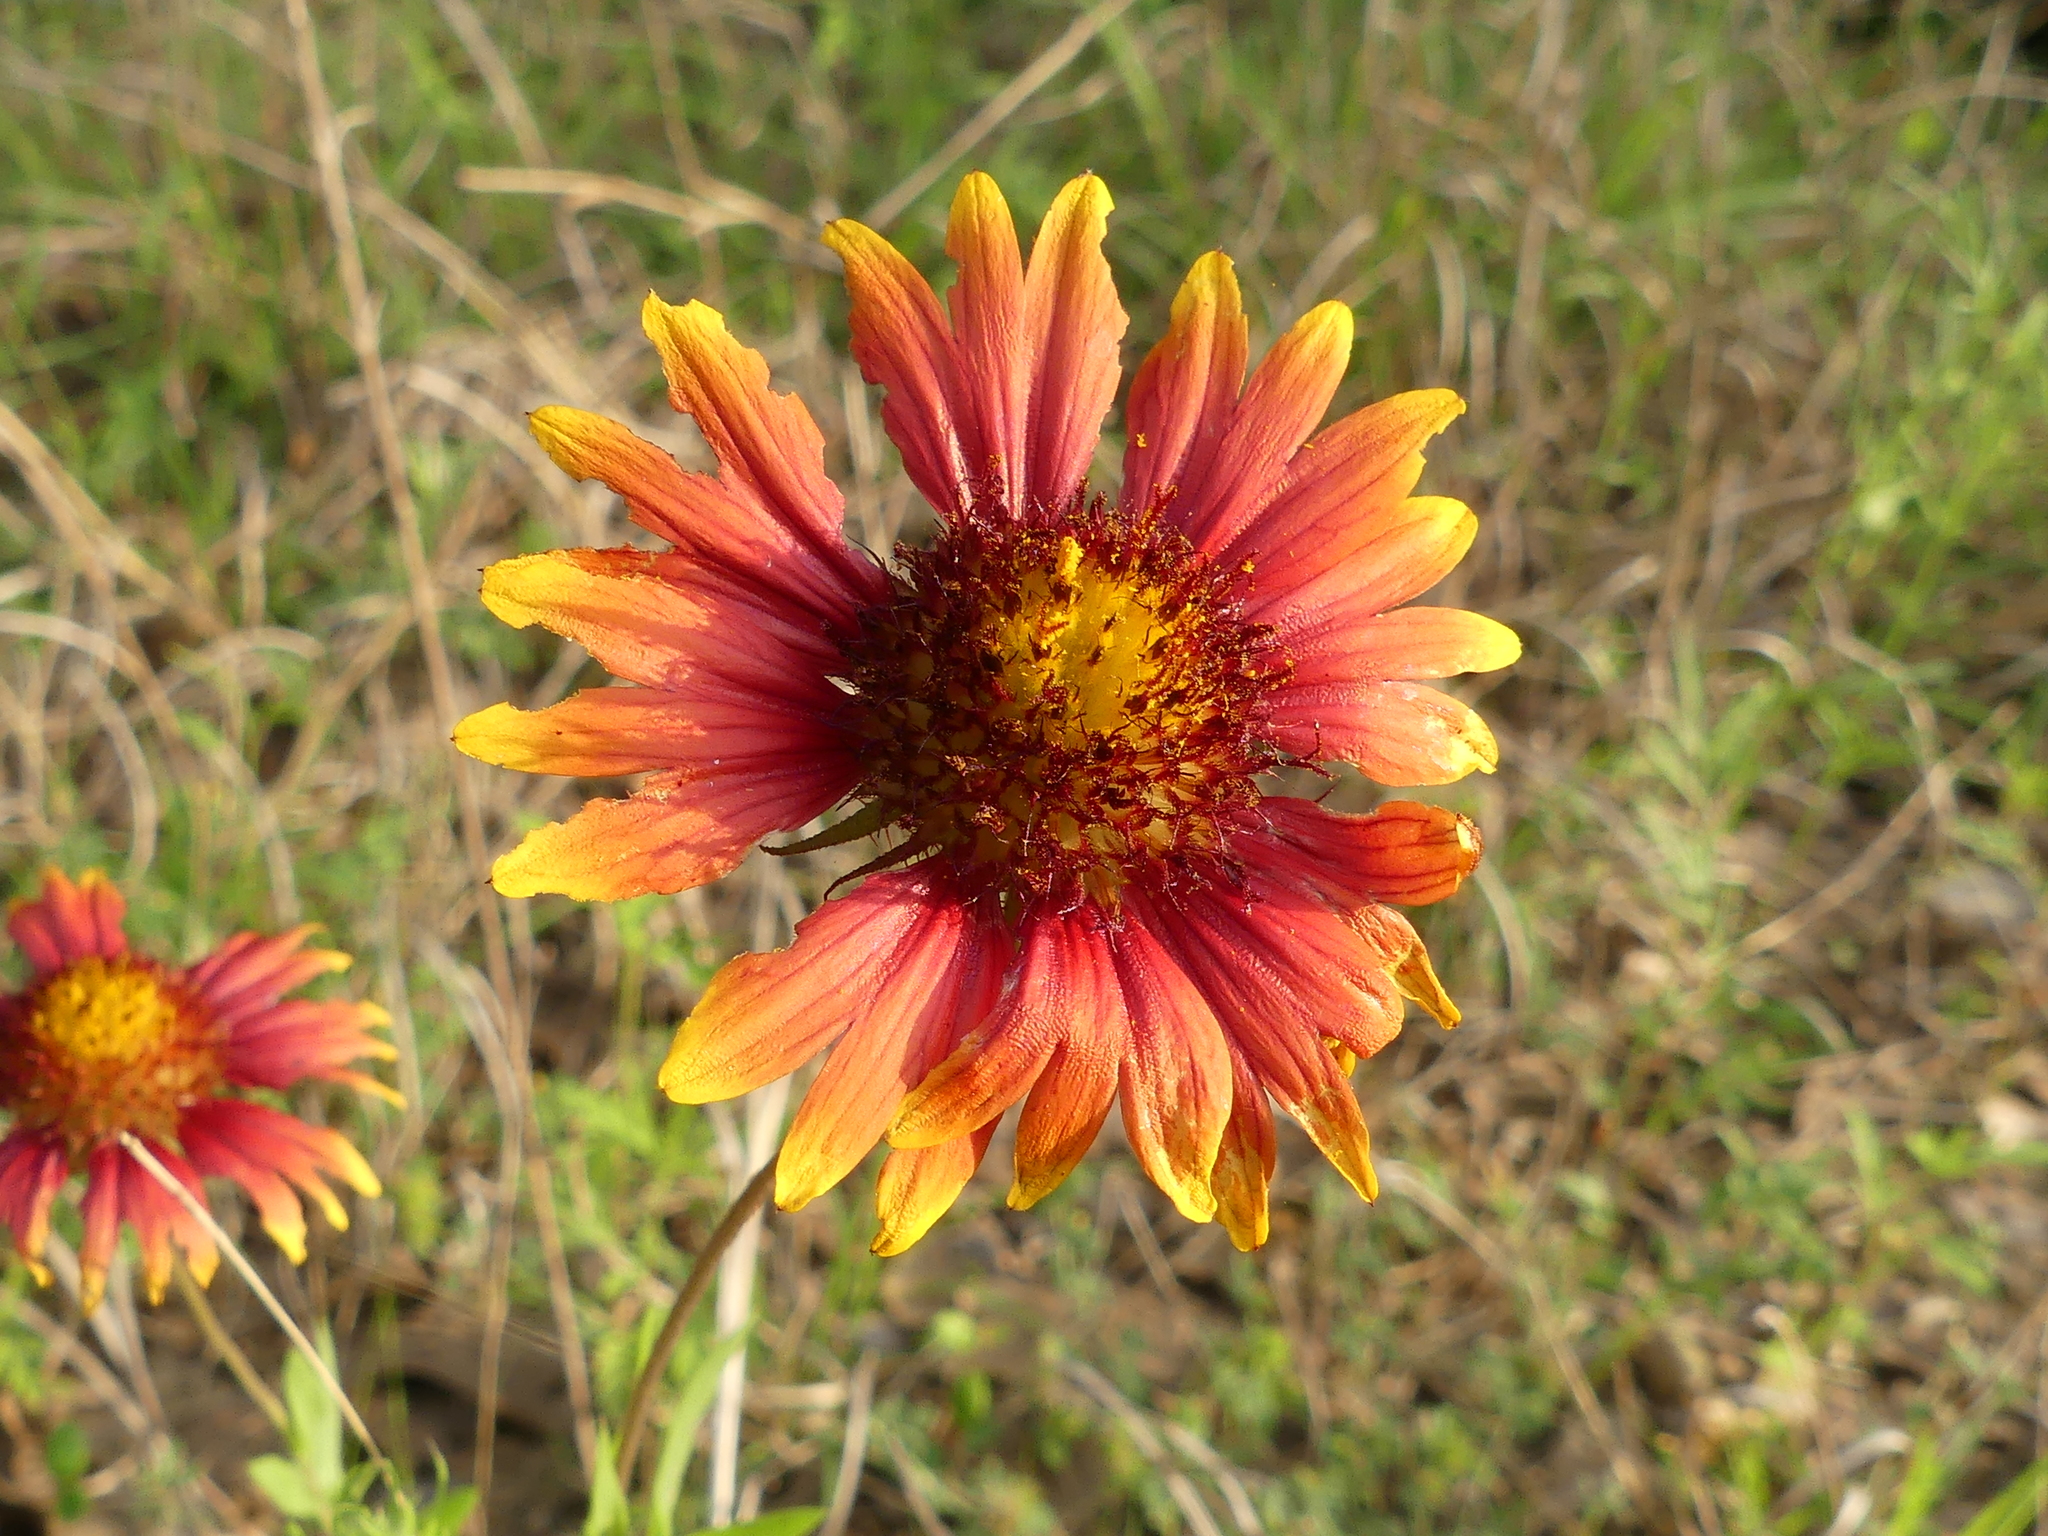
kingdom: Plantae
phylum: Tracheophyta
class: Magnoliopsida
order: Asterales
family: Asteraceae
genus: Gaillardia
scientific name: Gaillardia pulchella
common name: Firewheel
